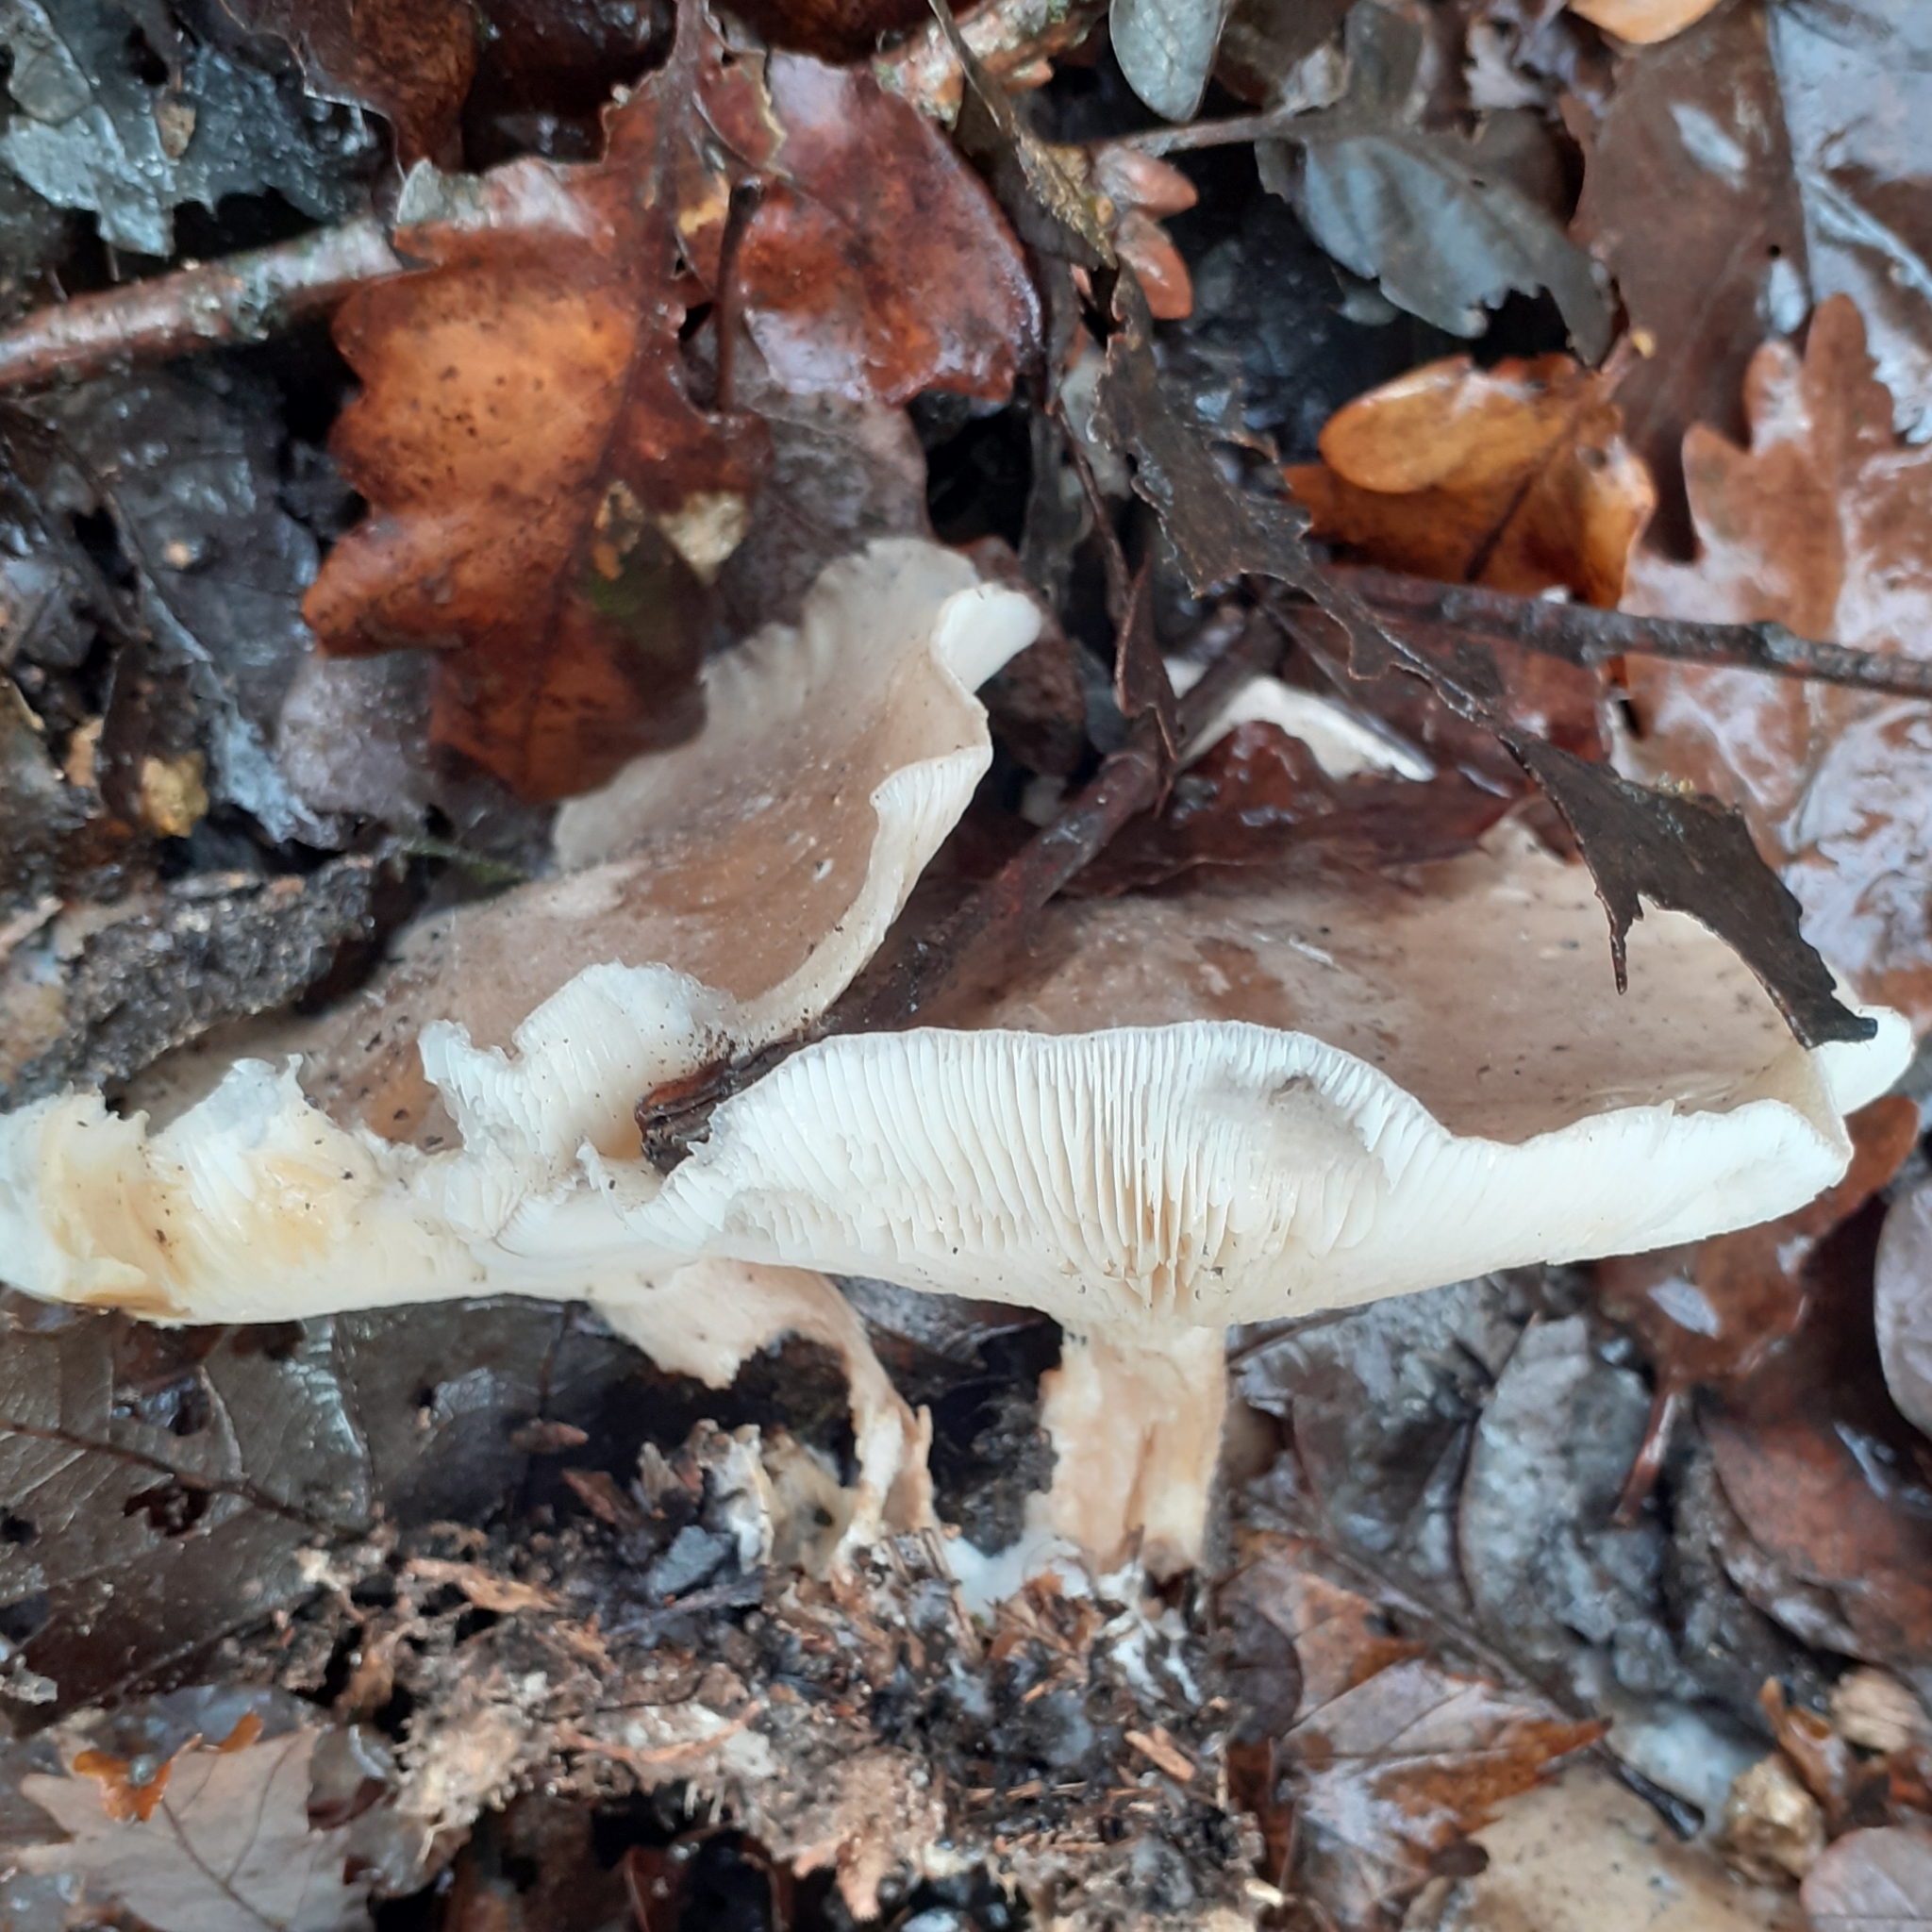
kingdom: Fungi
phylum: Basidiomycota
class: Agaricomycetes
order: Agaricales
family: Tricholomataceae
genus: Clitocybe
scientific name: Clitocybe nebularis
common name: Clouded agaric
